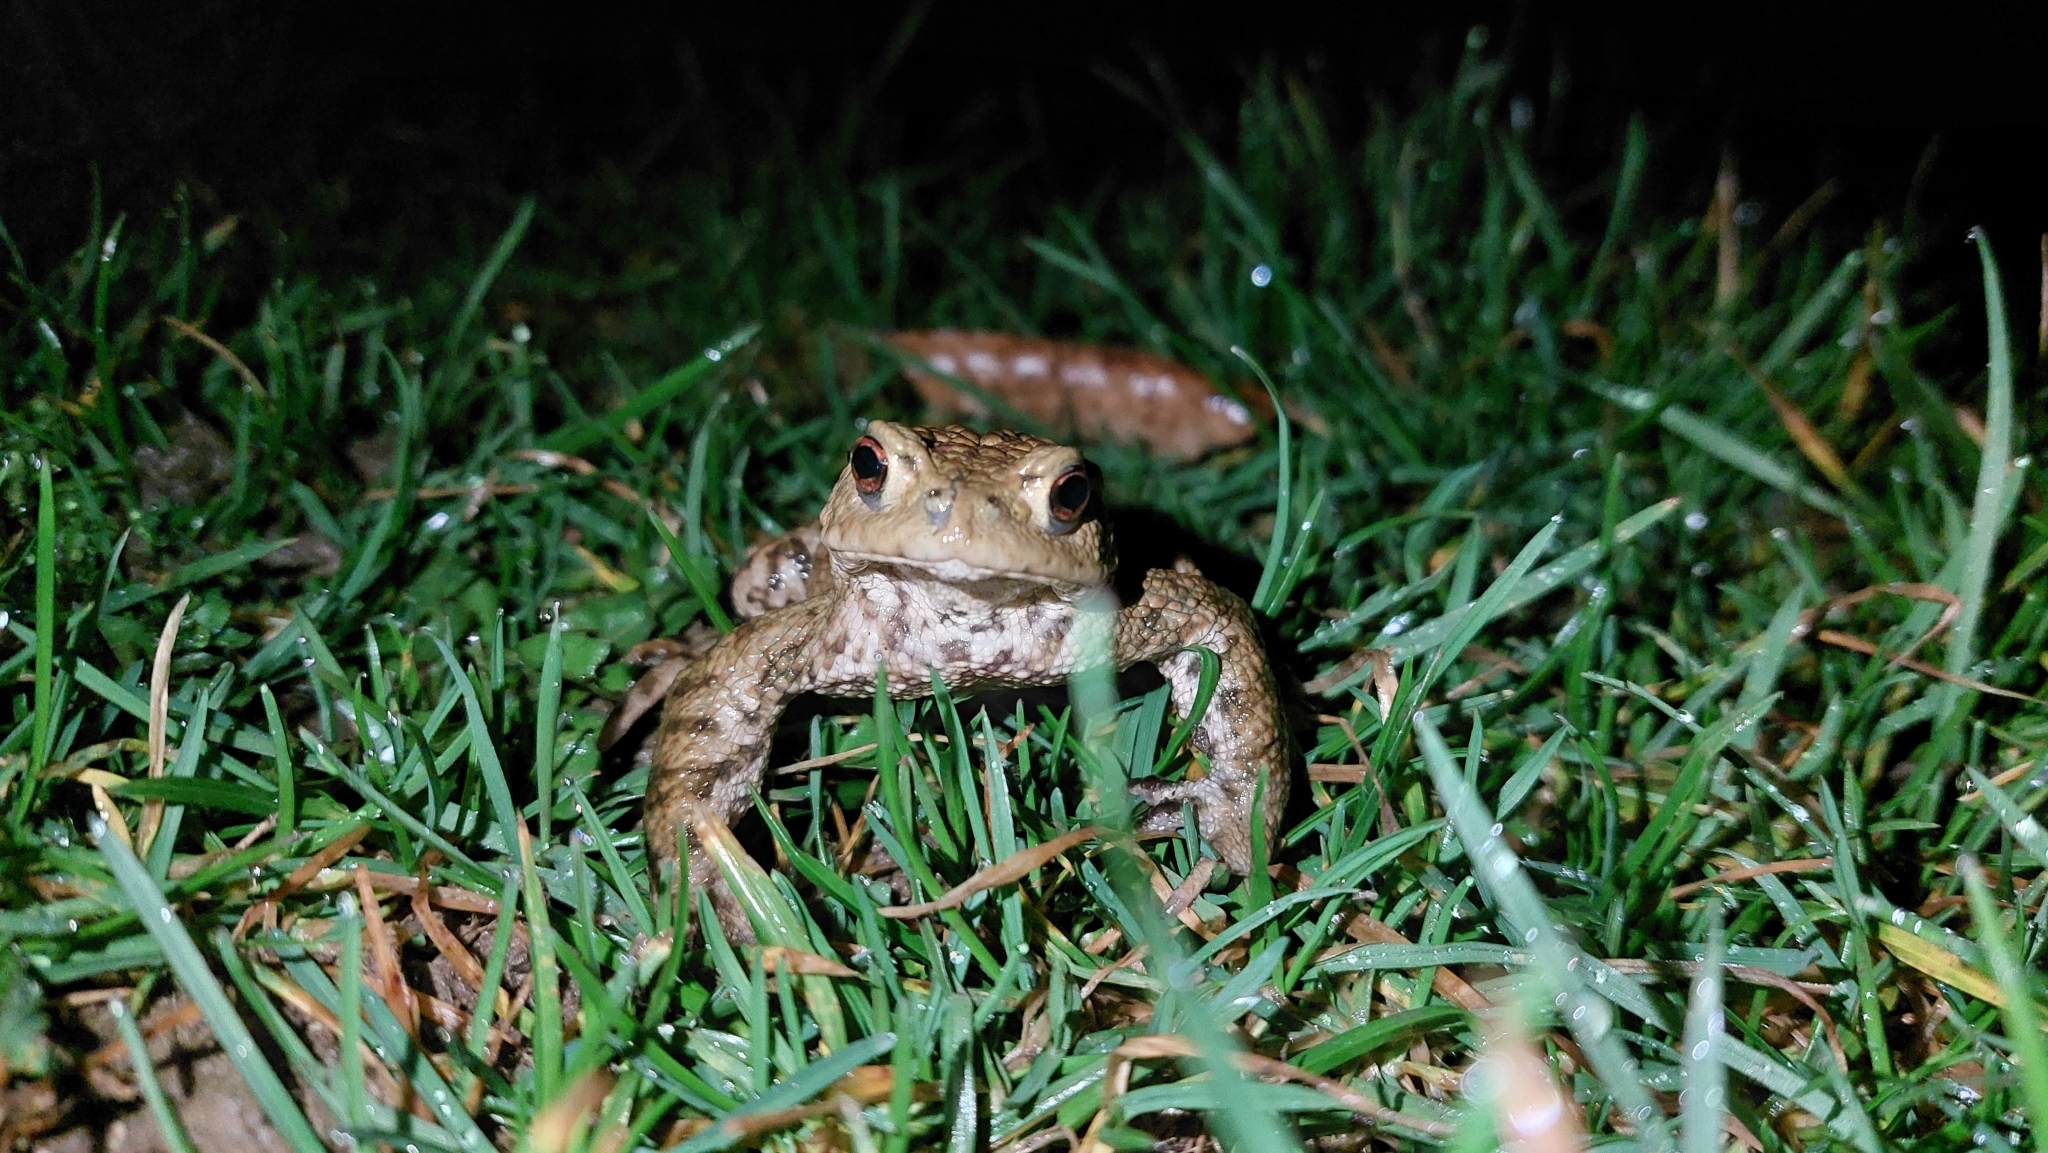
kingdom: Animalia
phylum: Chordata
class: Amphibia
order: Anura
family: Bufonidae
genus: Bufo
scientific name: Bufo bufo
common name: Common toad
